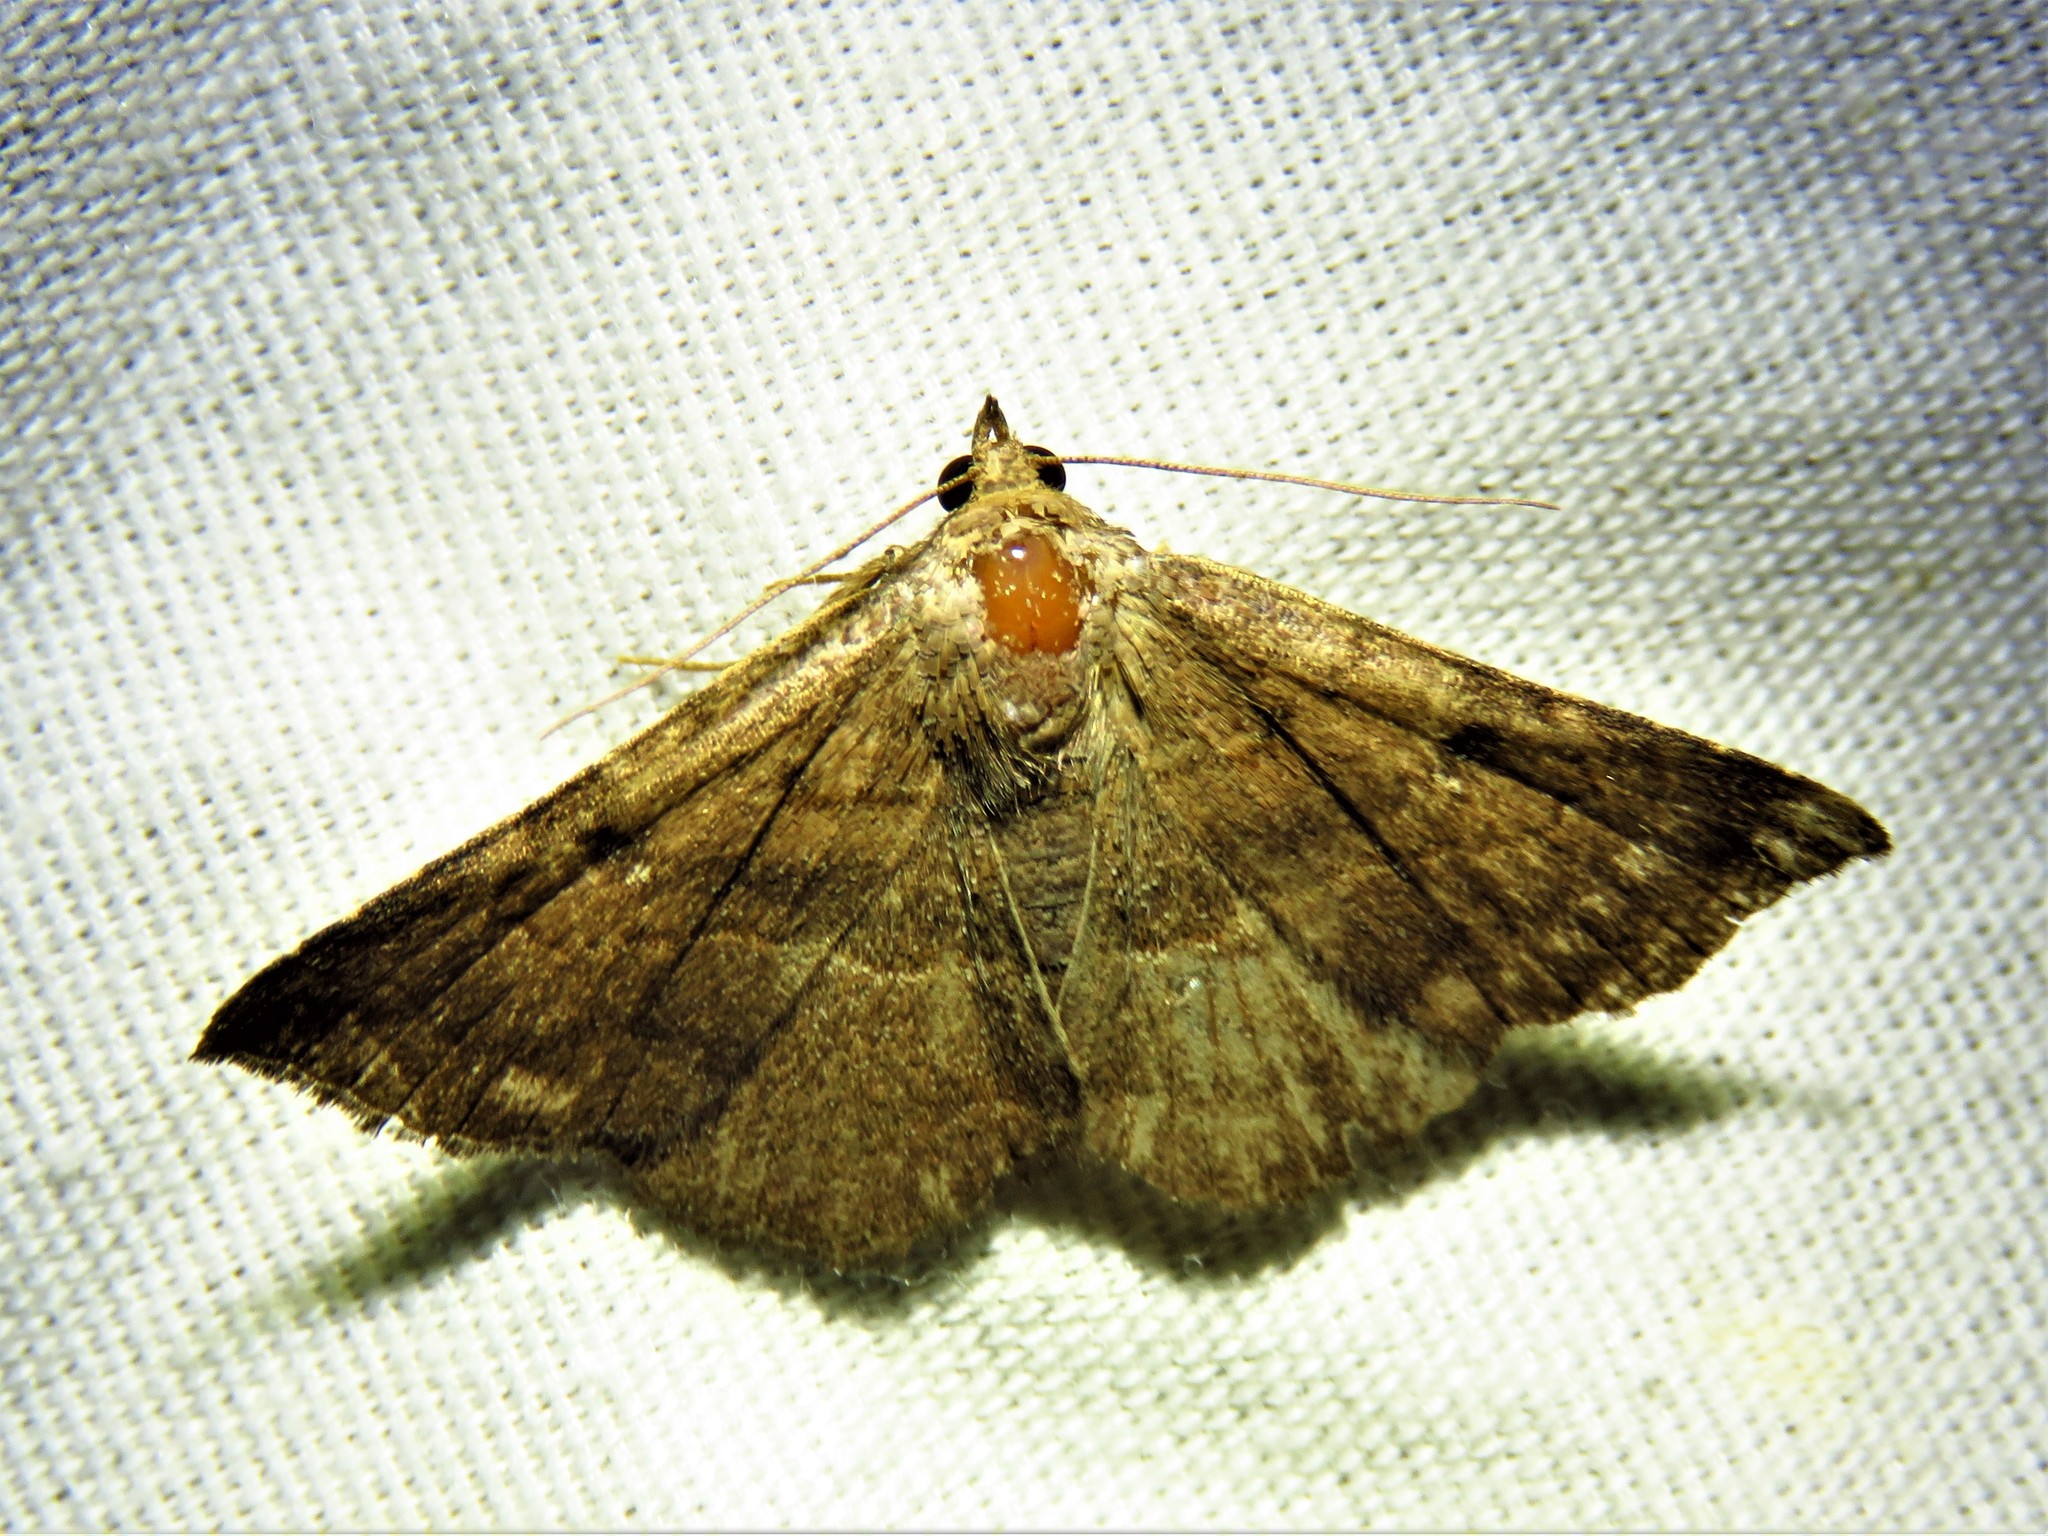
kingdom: Animalia
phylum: Arthropoda
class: Insecta
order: Lepidoptera
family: Erebidae
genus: Lesmone
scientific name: Lesmone detrahens
